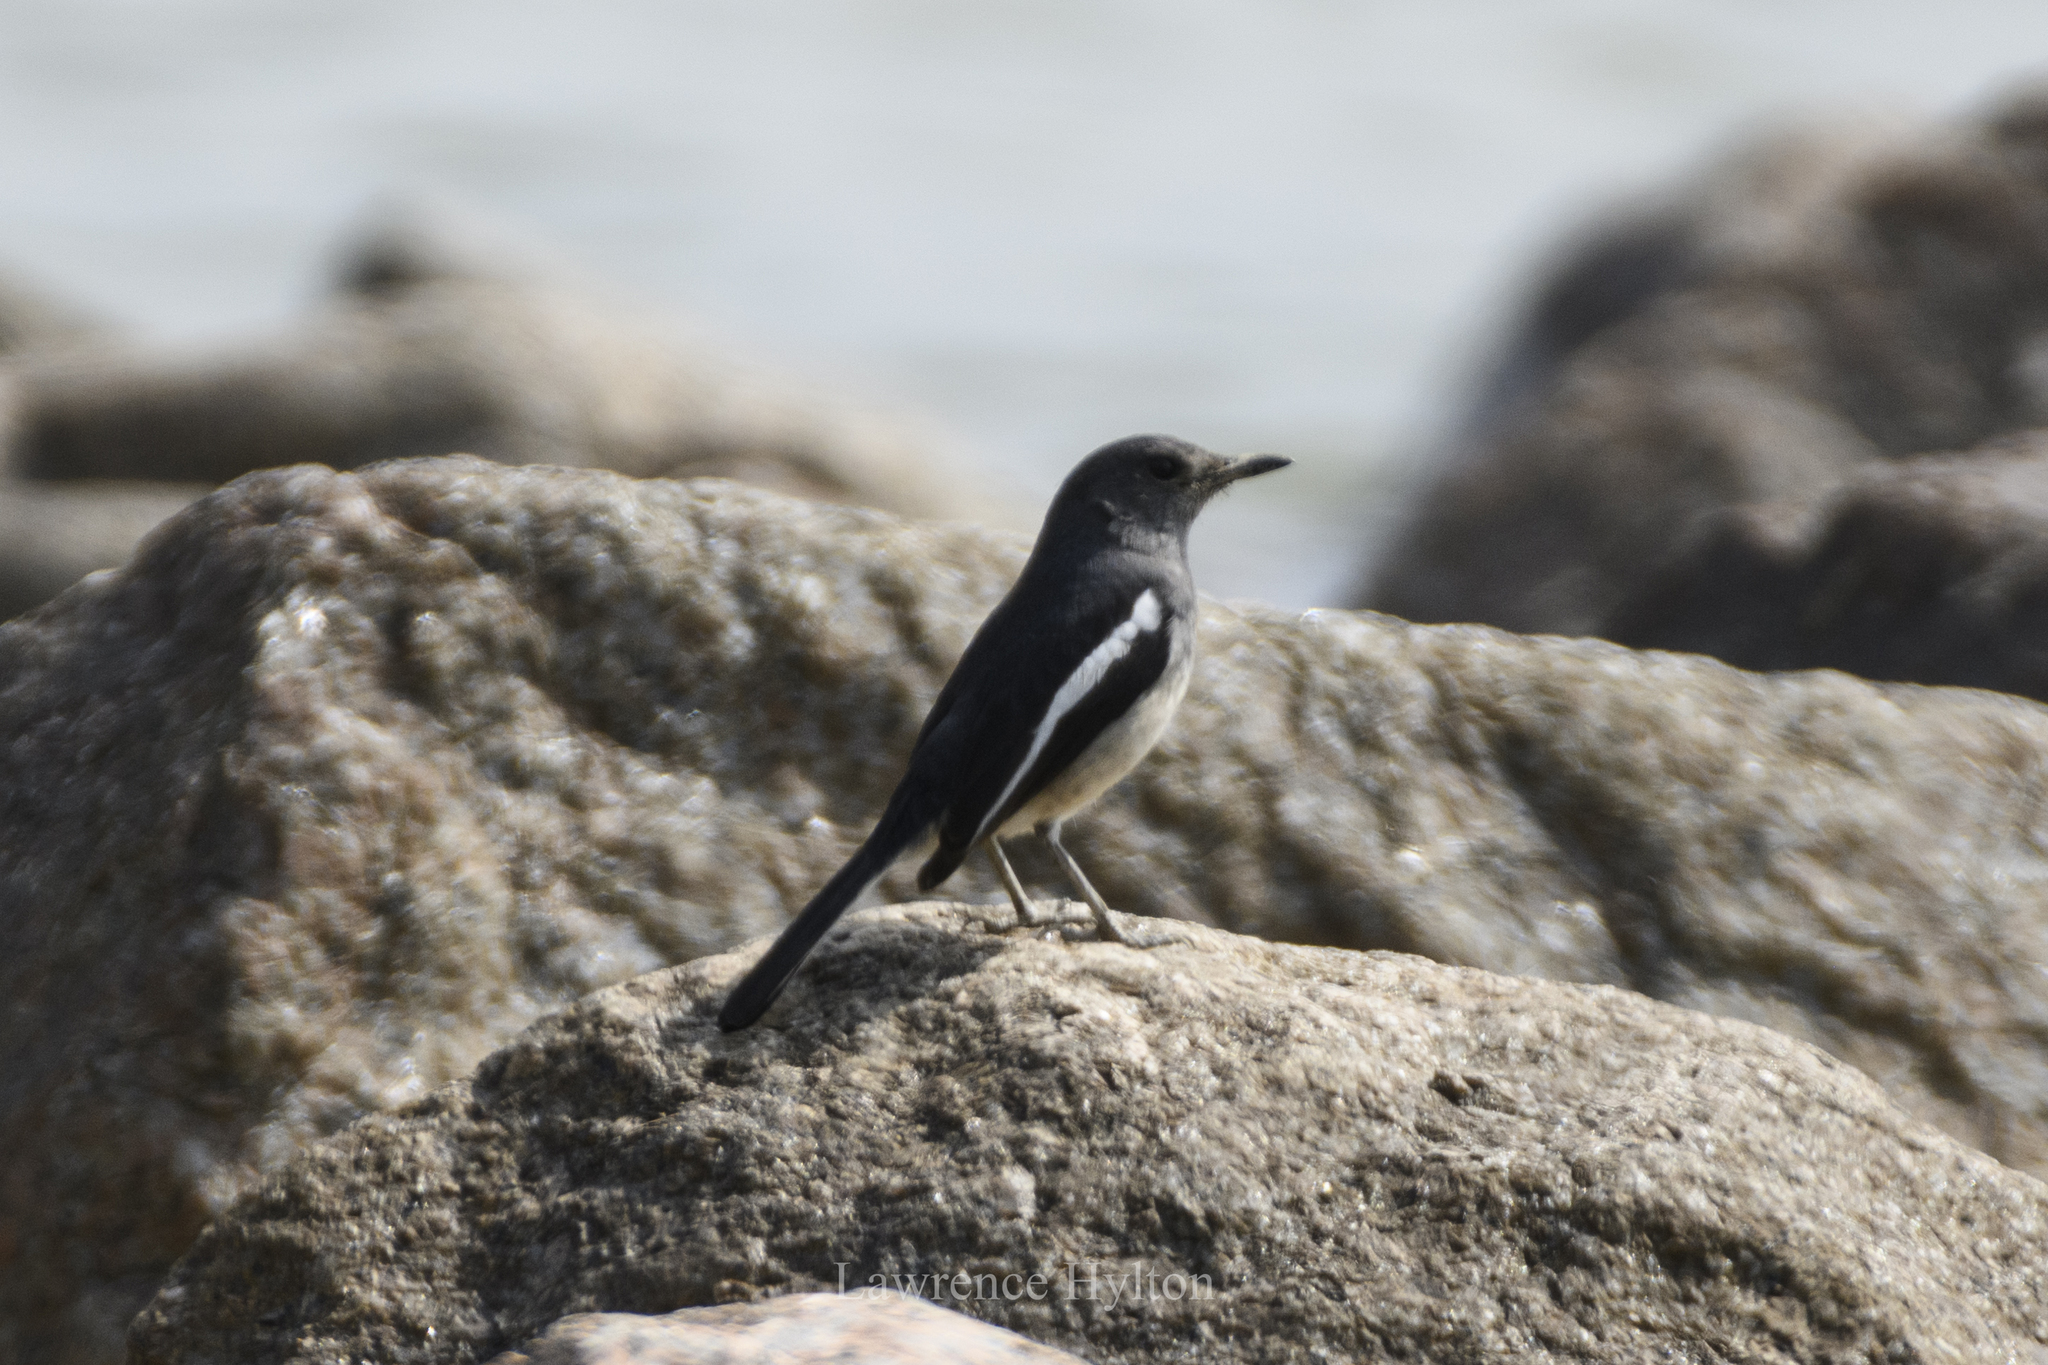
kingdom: Animalia
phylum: Chordata
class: Aves
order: Passeriformes
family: Muscicapidae
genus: Copsychus
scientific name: Copsychus saularis
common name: Oriental magpie-robin
